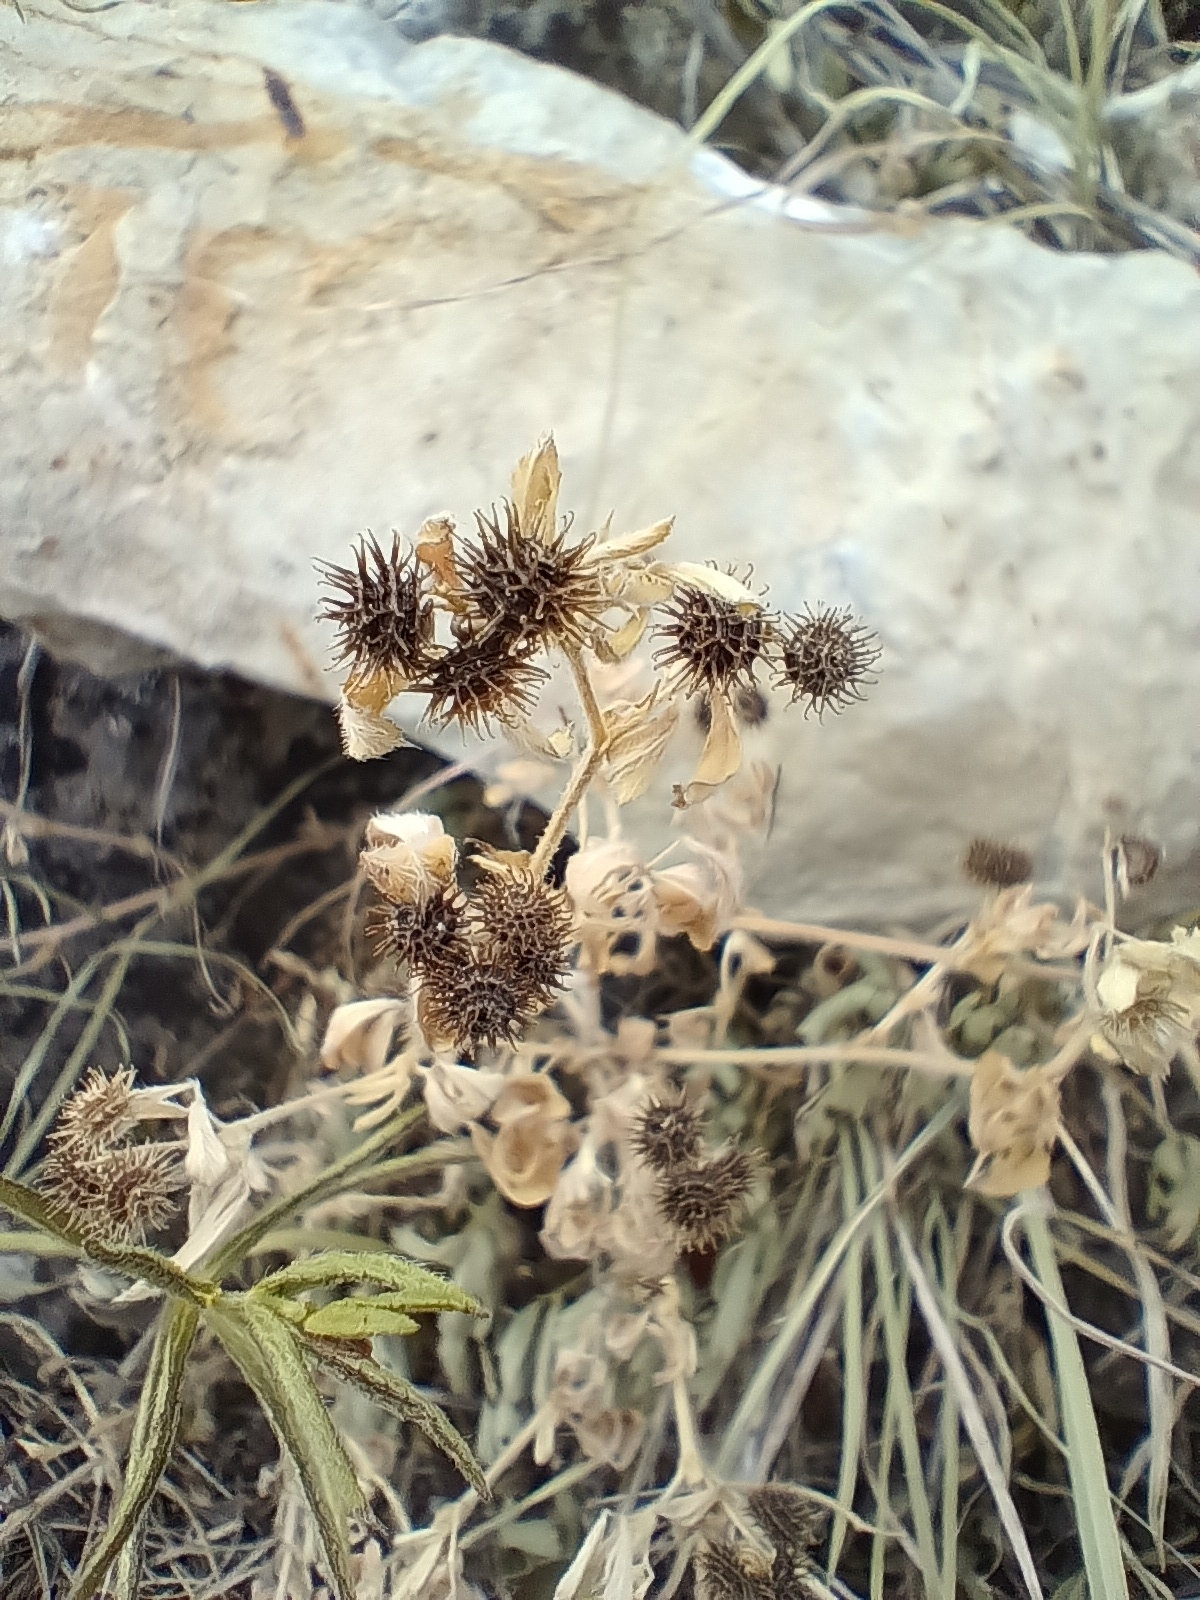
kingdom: Plantae
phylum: Tracheophyta
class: Magnoliopsida
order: Fabales
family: Fabaceae
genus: Medicago
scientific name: Medicago minima
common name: Little bur-clover
